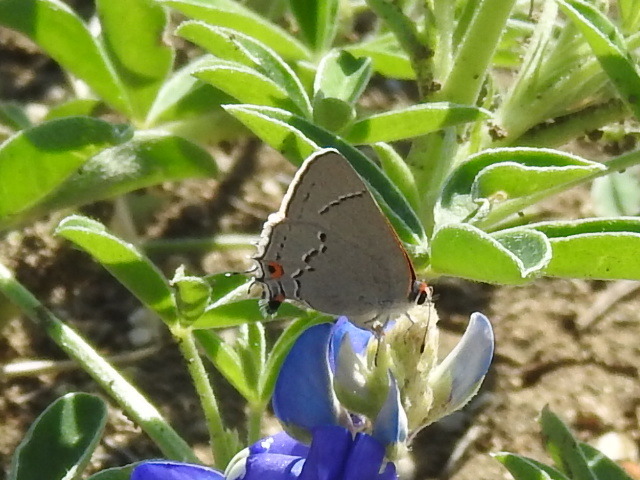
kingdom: Animalia
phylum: Arthropoda
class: Insecta
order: Lepidoptera
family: Lycaenidae
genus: Strymon
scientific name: Strymon melinus
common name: Gray hairstreak
